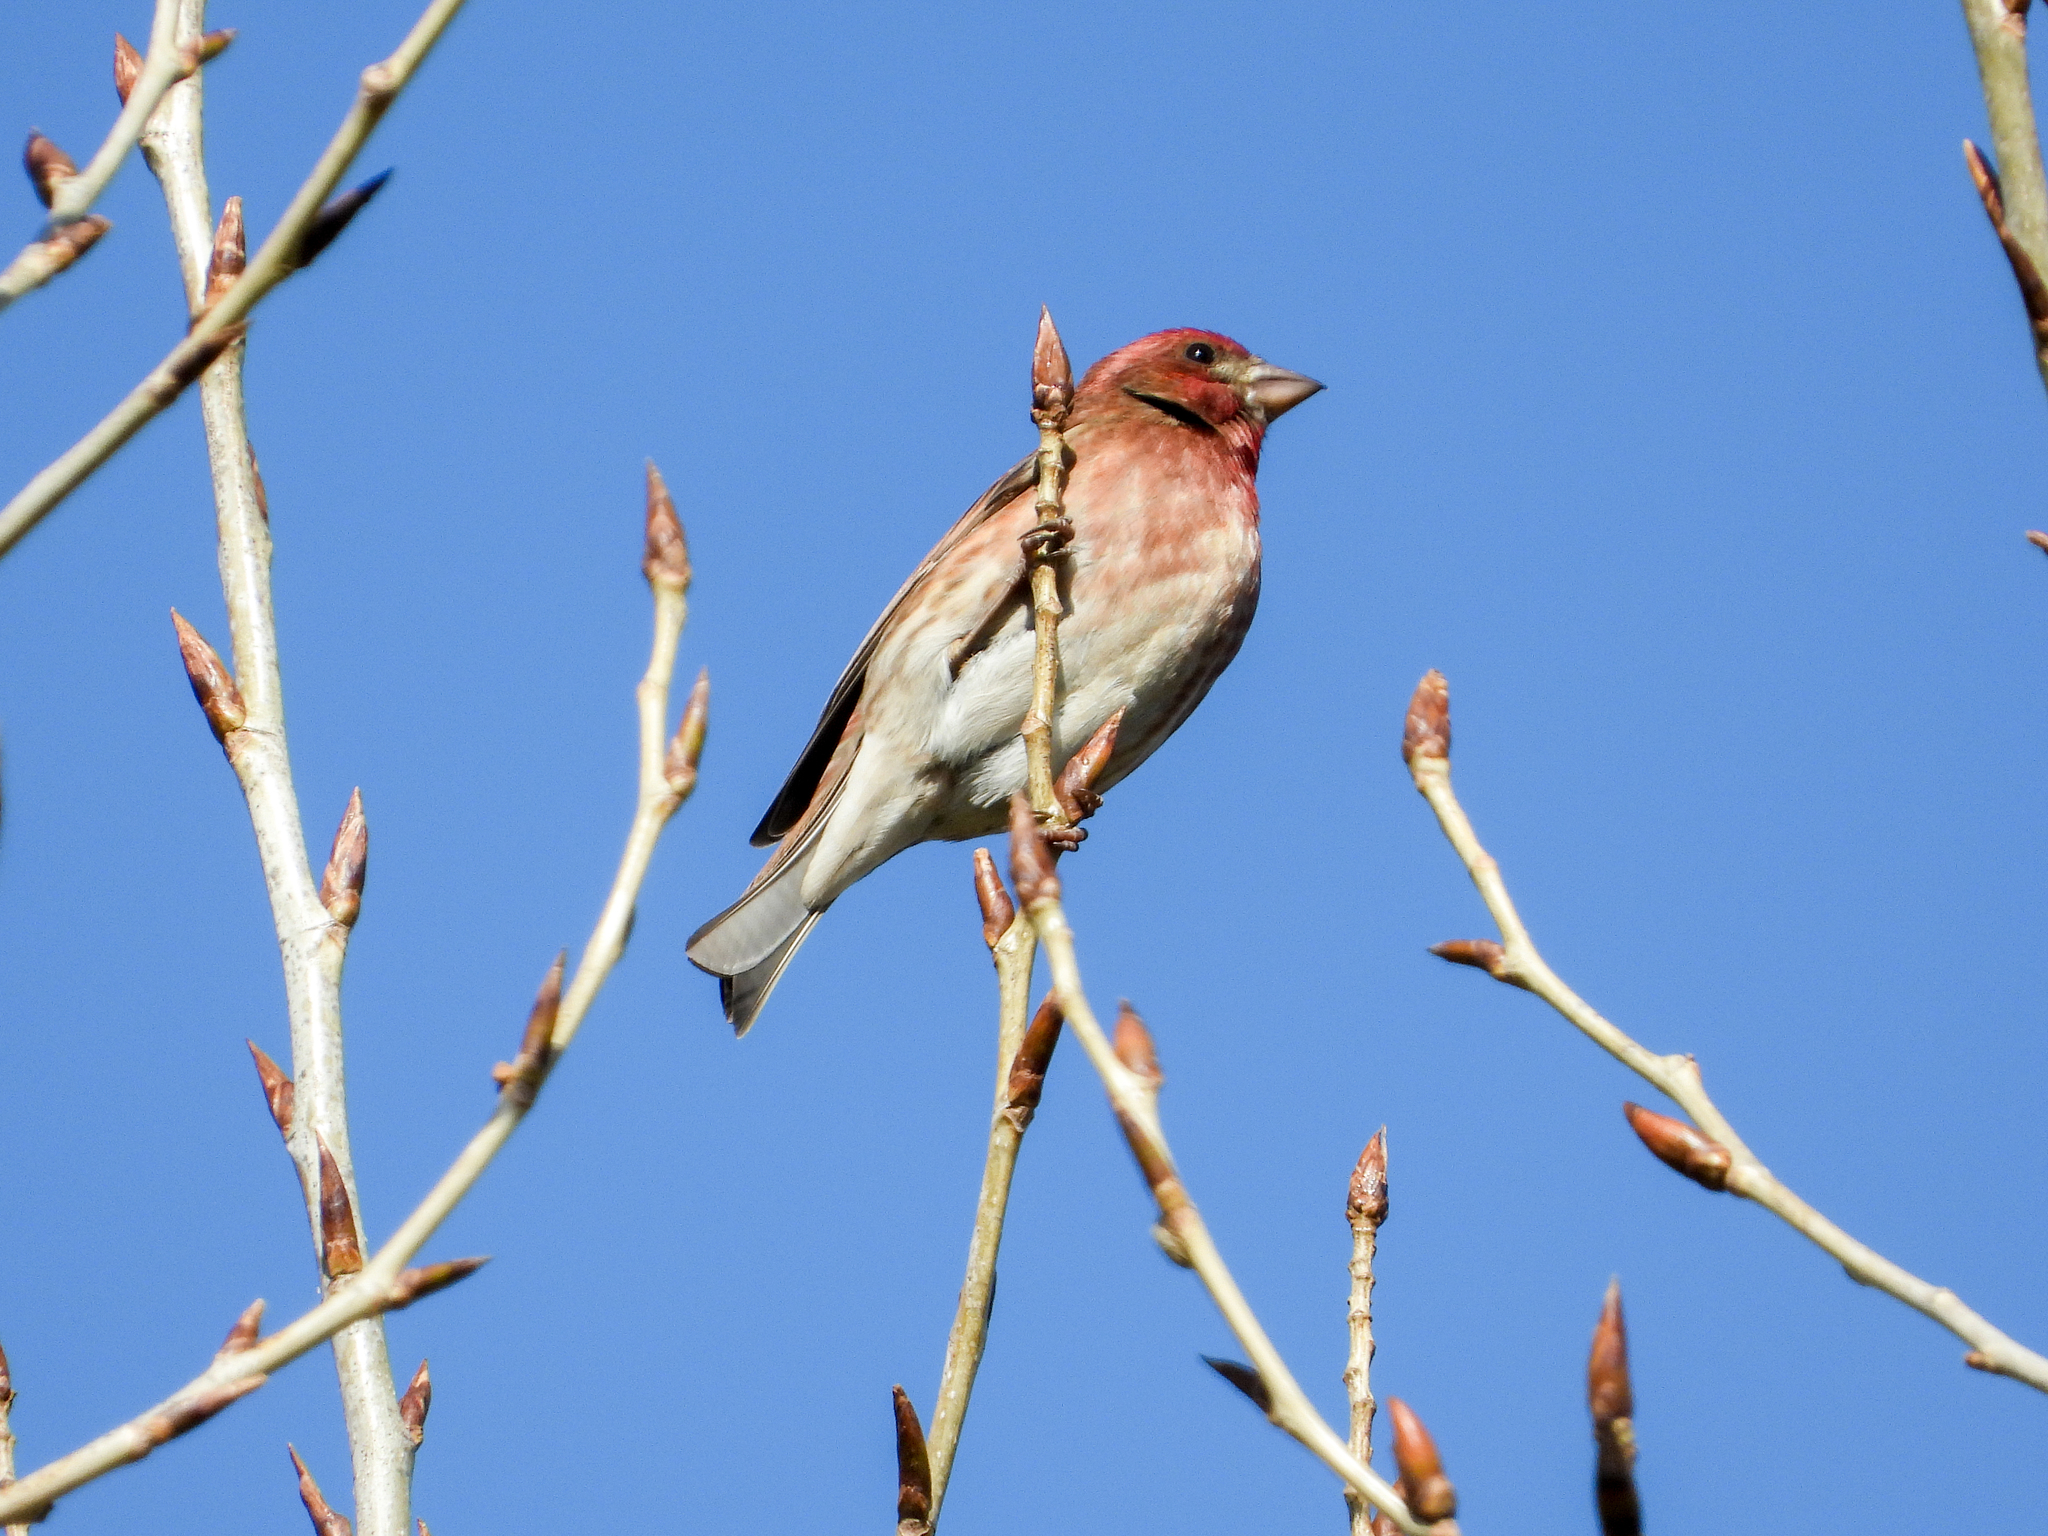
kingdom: Animalia
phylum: Chordata
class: Aves
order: Passeriformes
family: Fringillidae
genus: Haemorhous
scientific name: Haemorhous purpureus
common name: Purple finch
